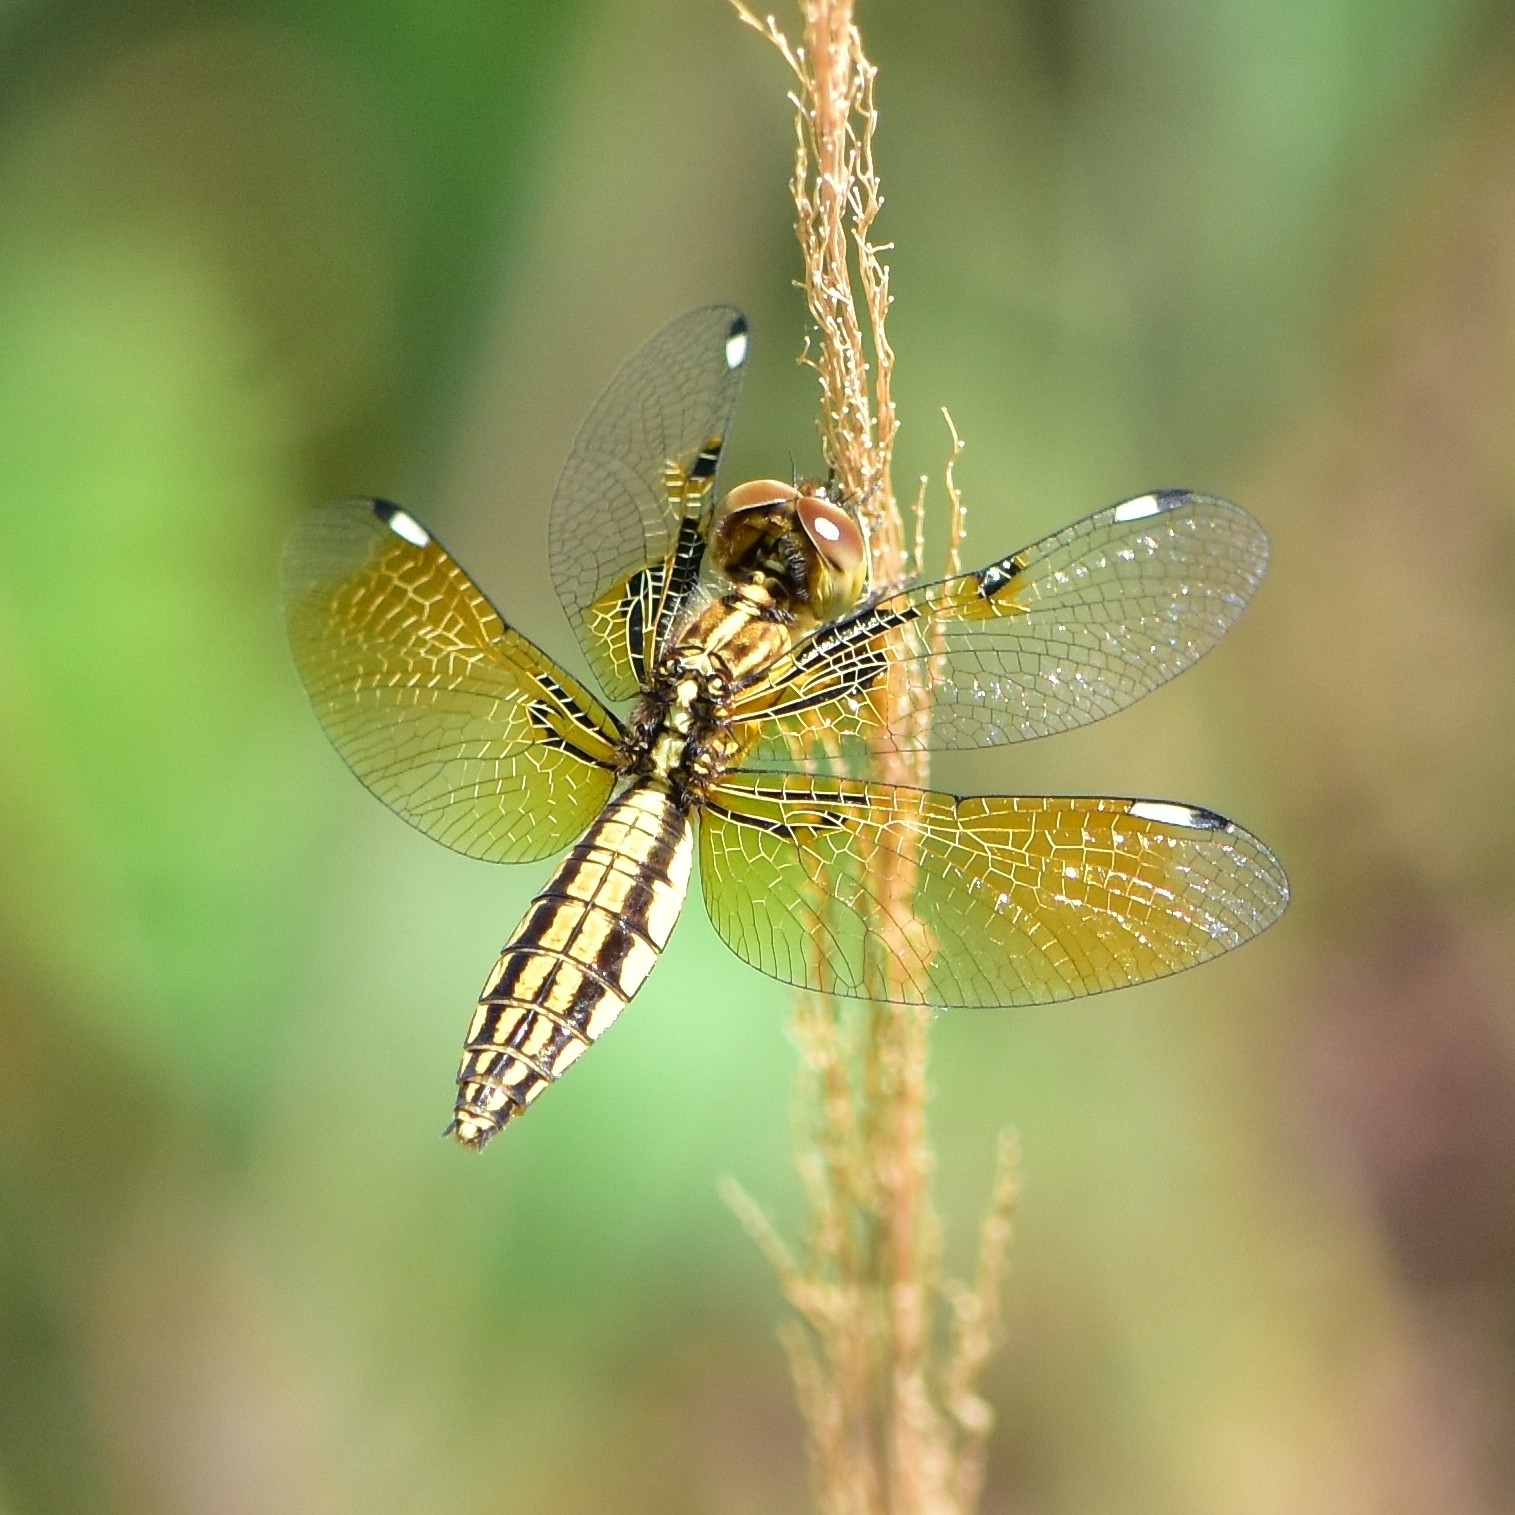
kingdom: Animalia
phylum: Arthropoda
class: Insecta
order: Odonata
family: Libellulidae
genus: Palpopleura
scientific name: Palpopleura sexmaculata
